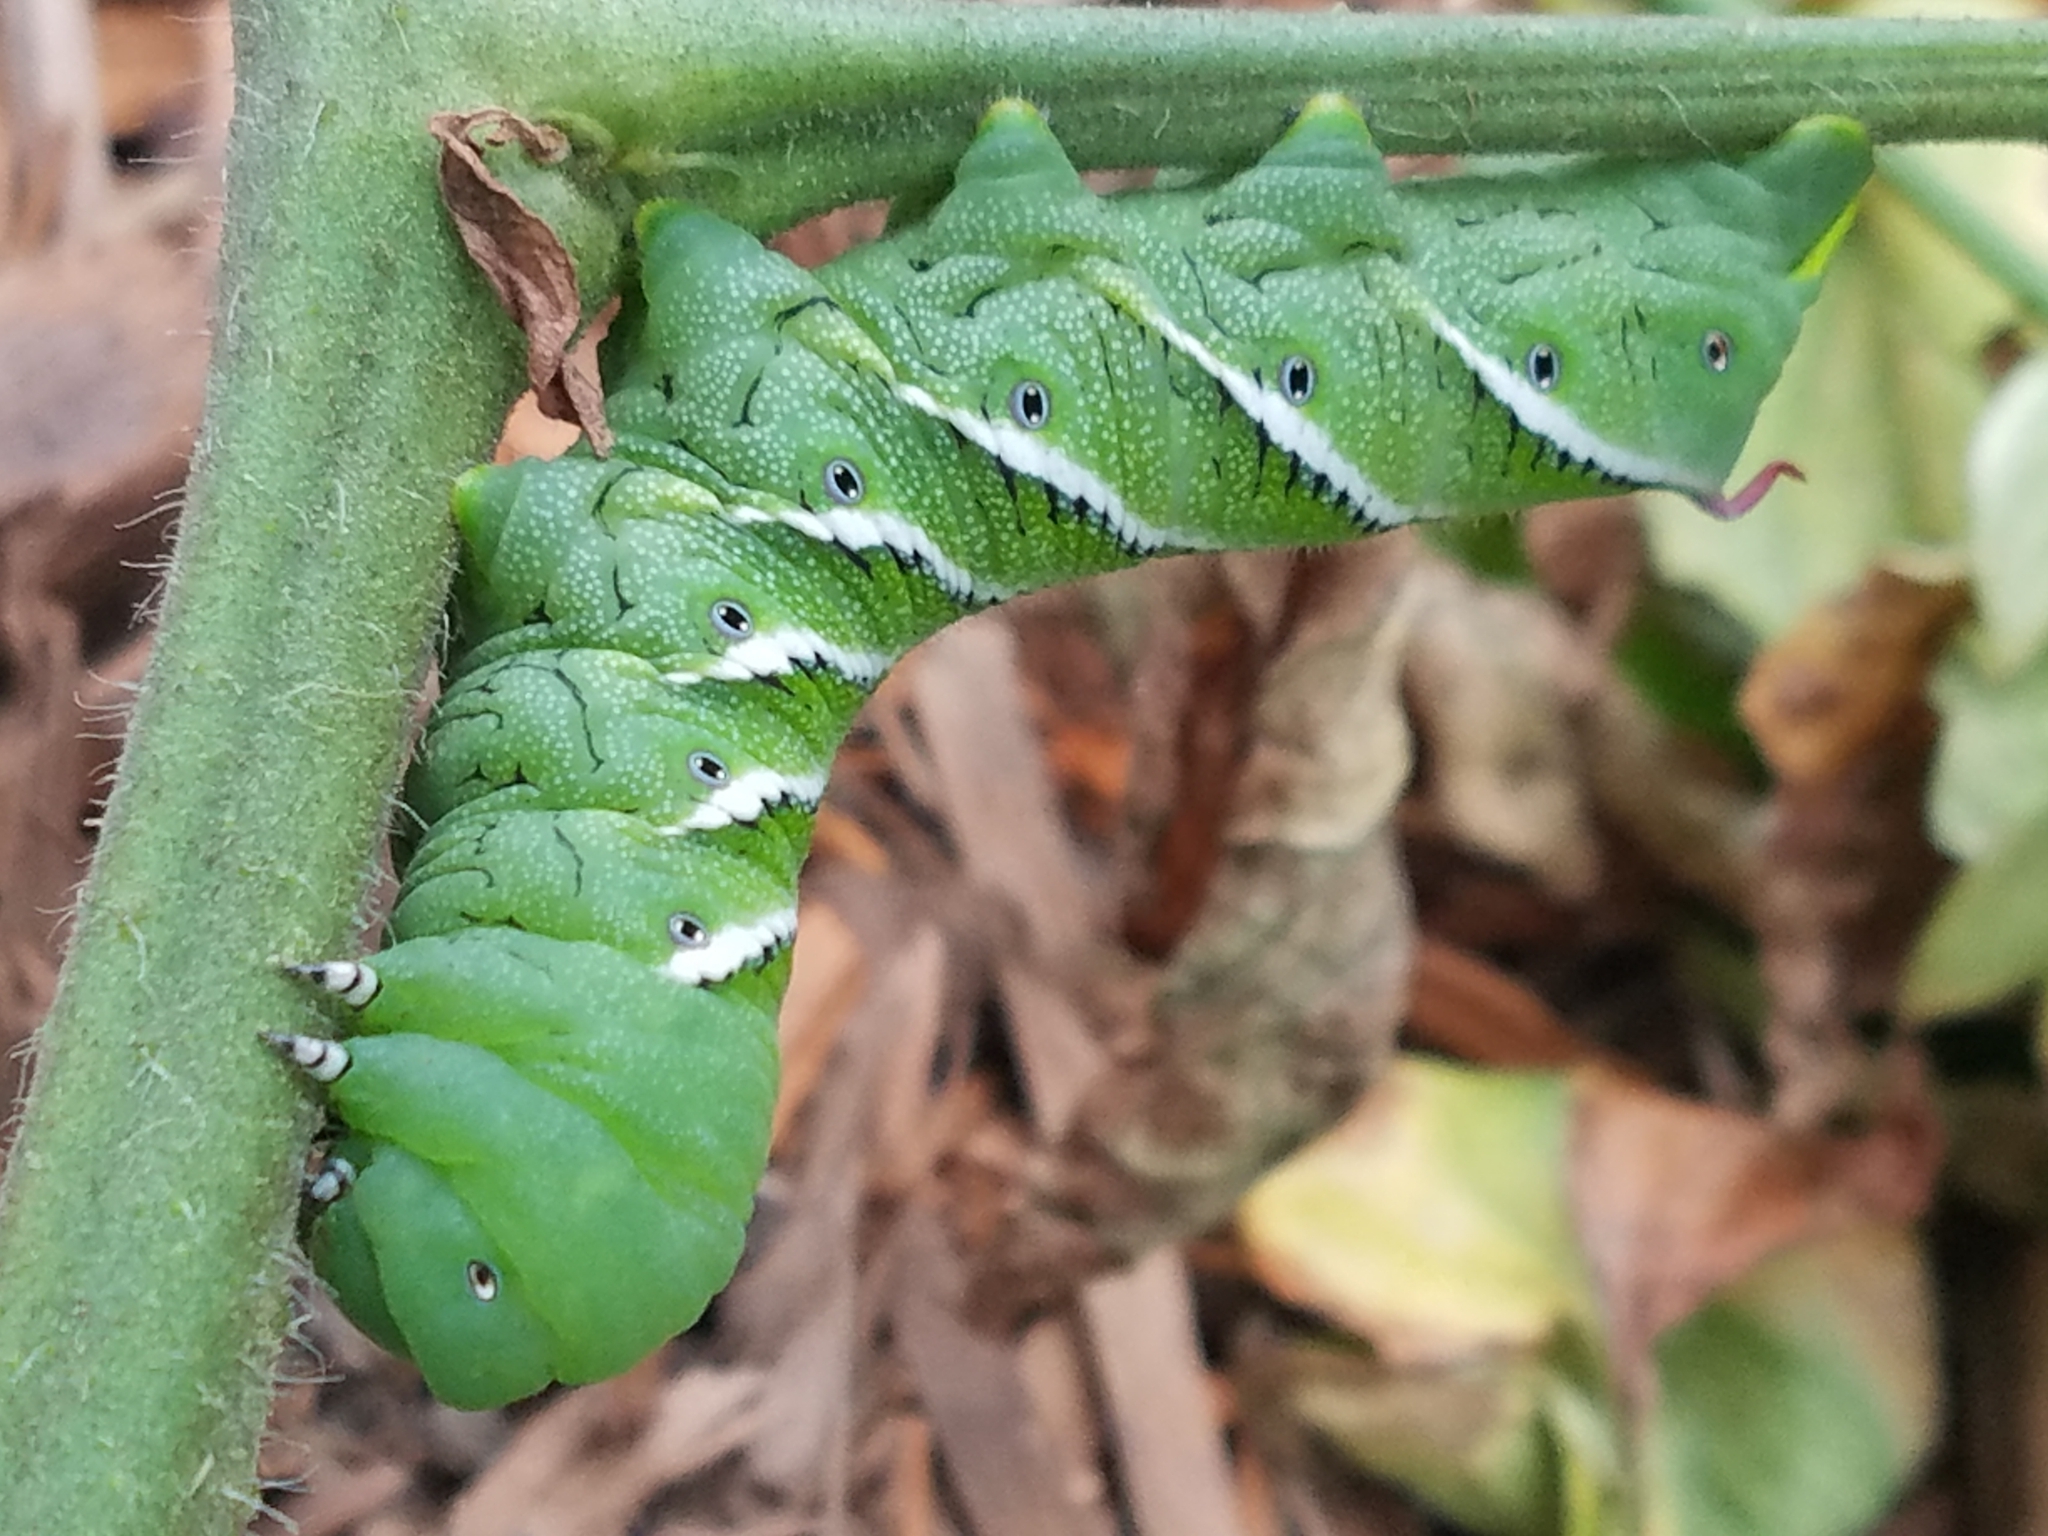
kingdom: Animalia
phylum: Arthropoda
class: Insecta
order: Lepidoptera
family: Sphingidae
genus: Manduca
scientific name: Manduca sexta
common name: Carolina sphinx
